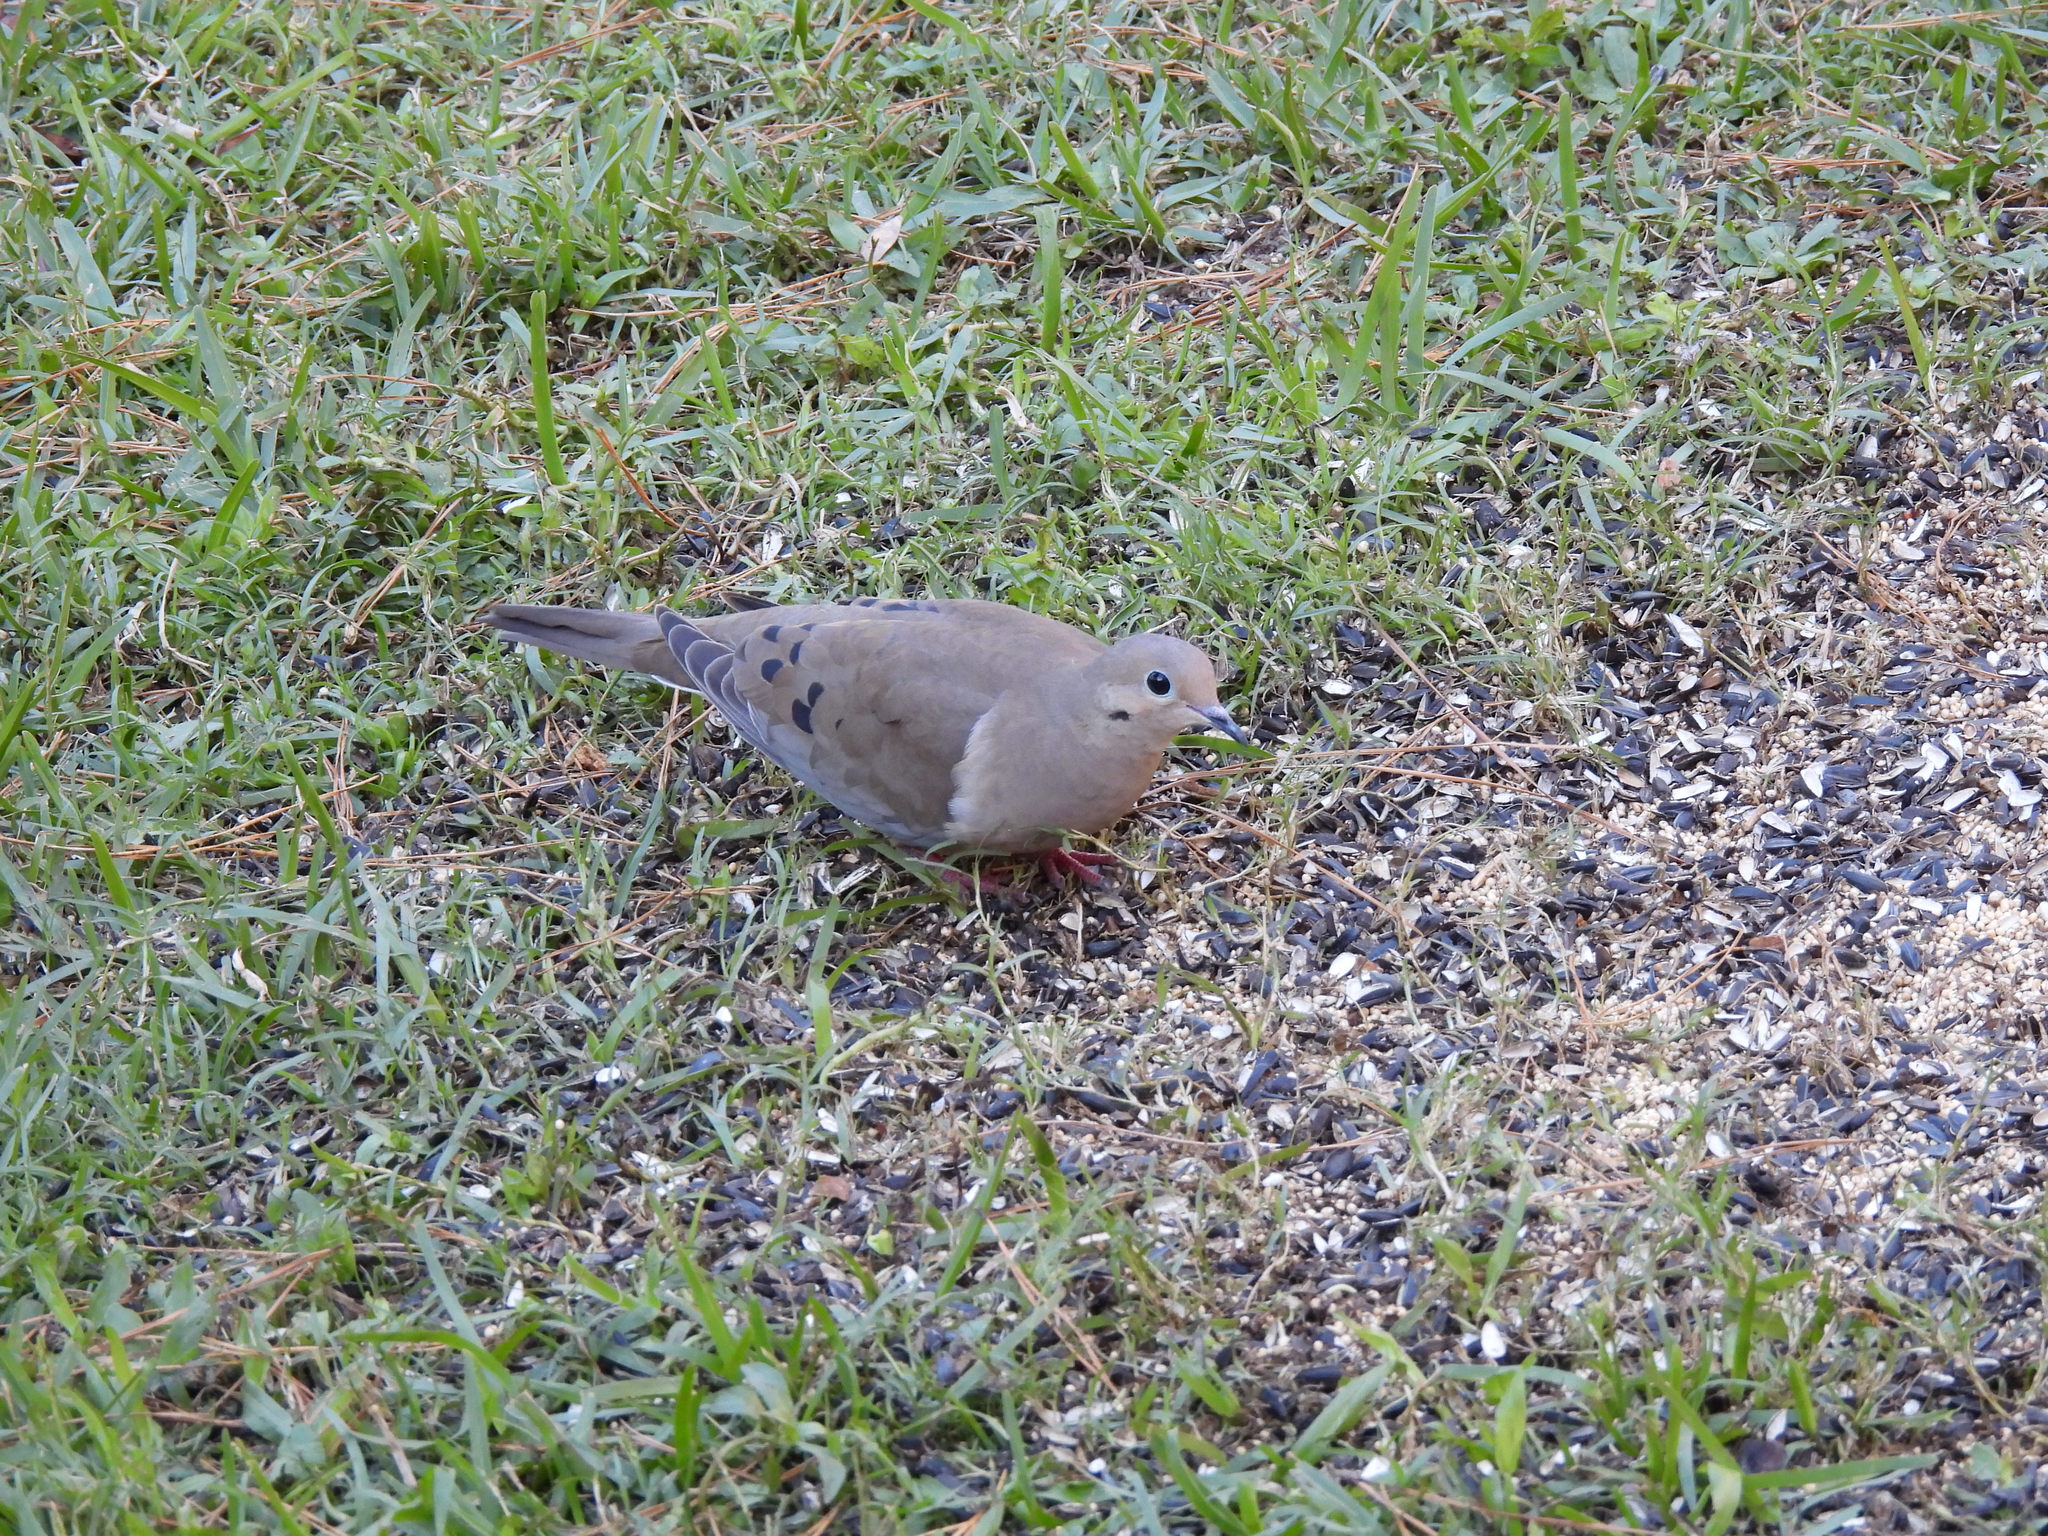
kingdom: Animalia
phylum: Chordata
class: Aves
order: Columbiformes
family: Columbidae
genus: Zenaida
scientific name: Zenaida macroura
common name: Mourning dove
